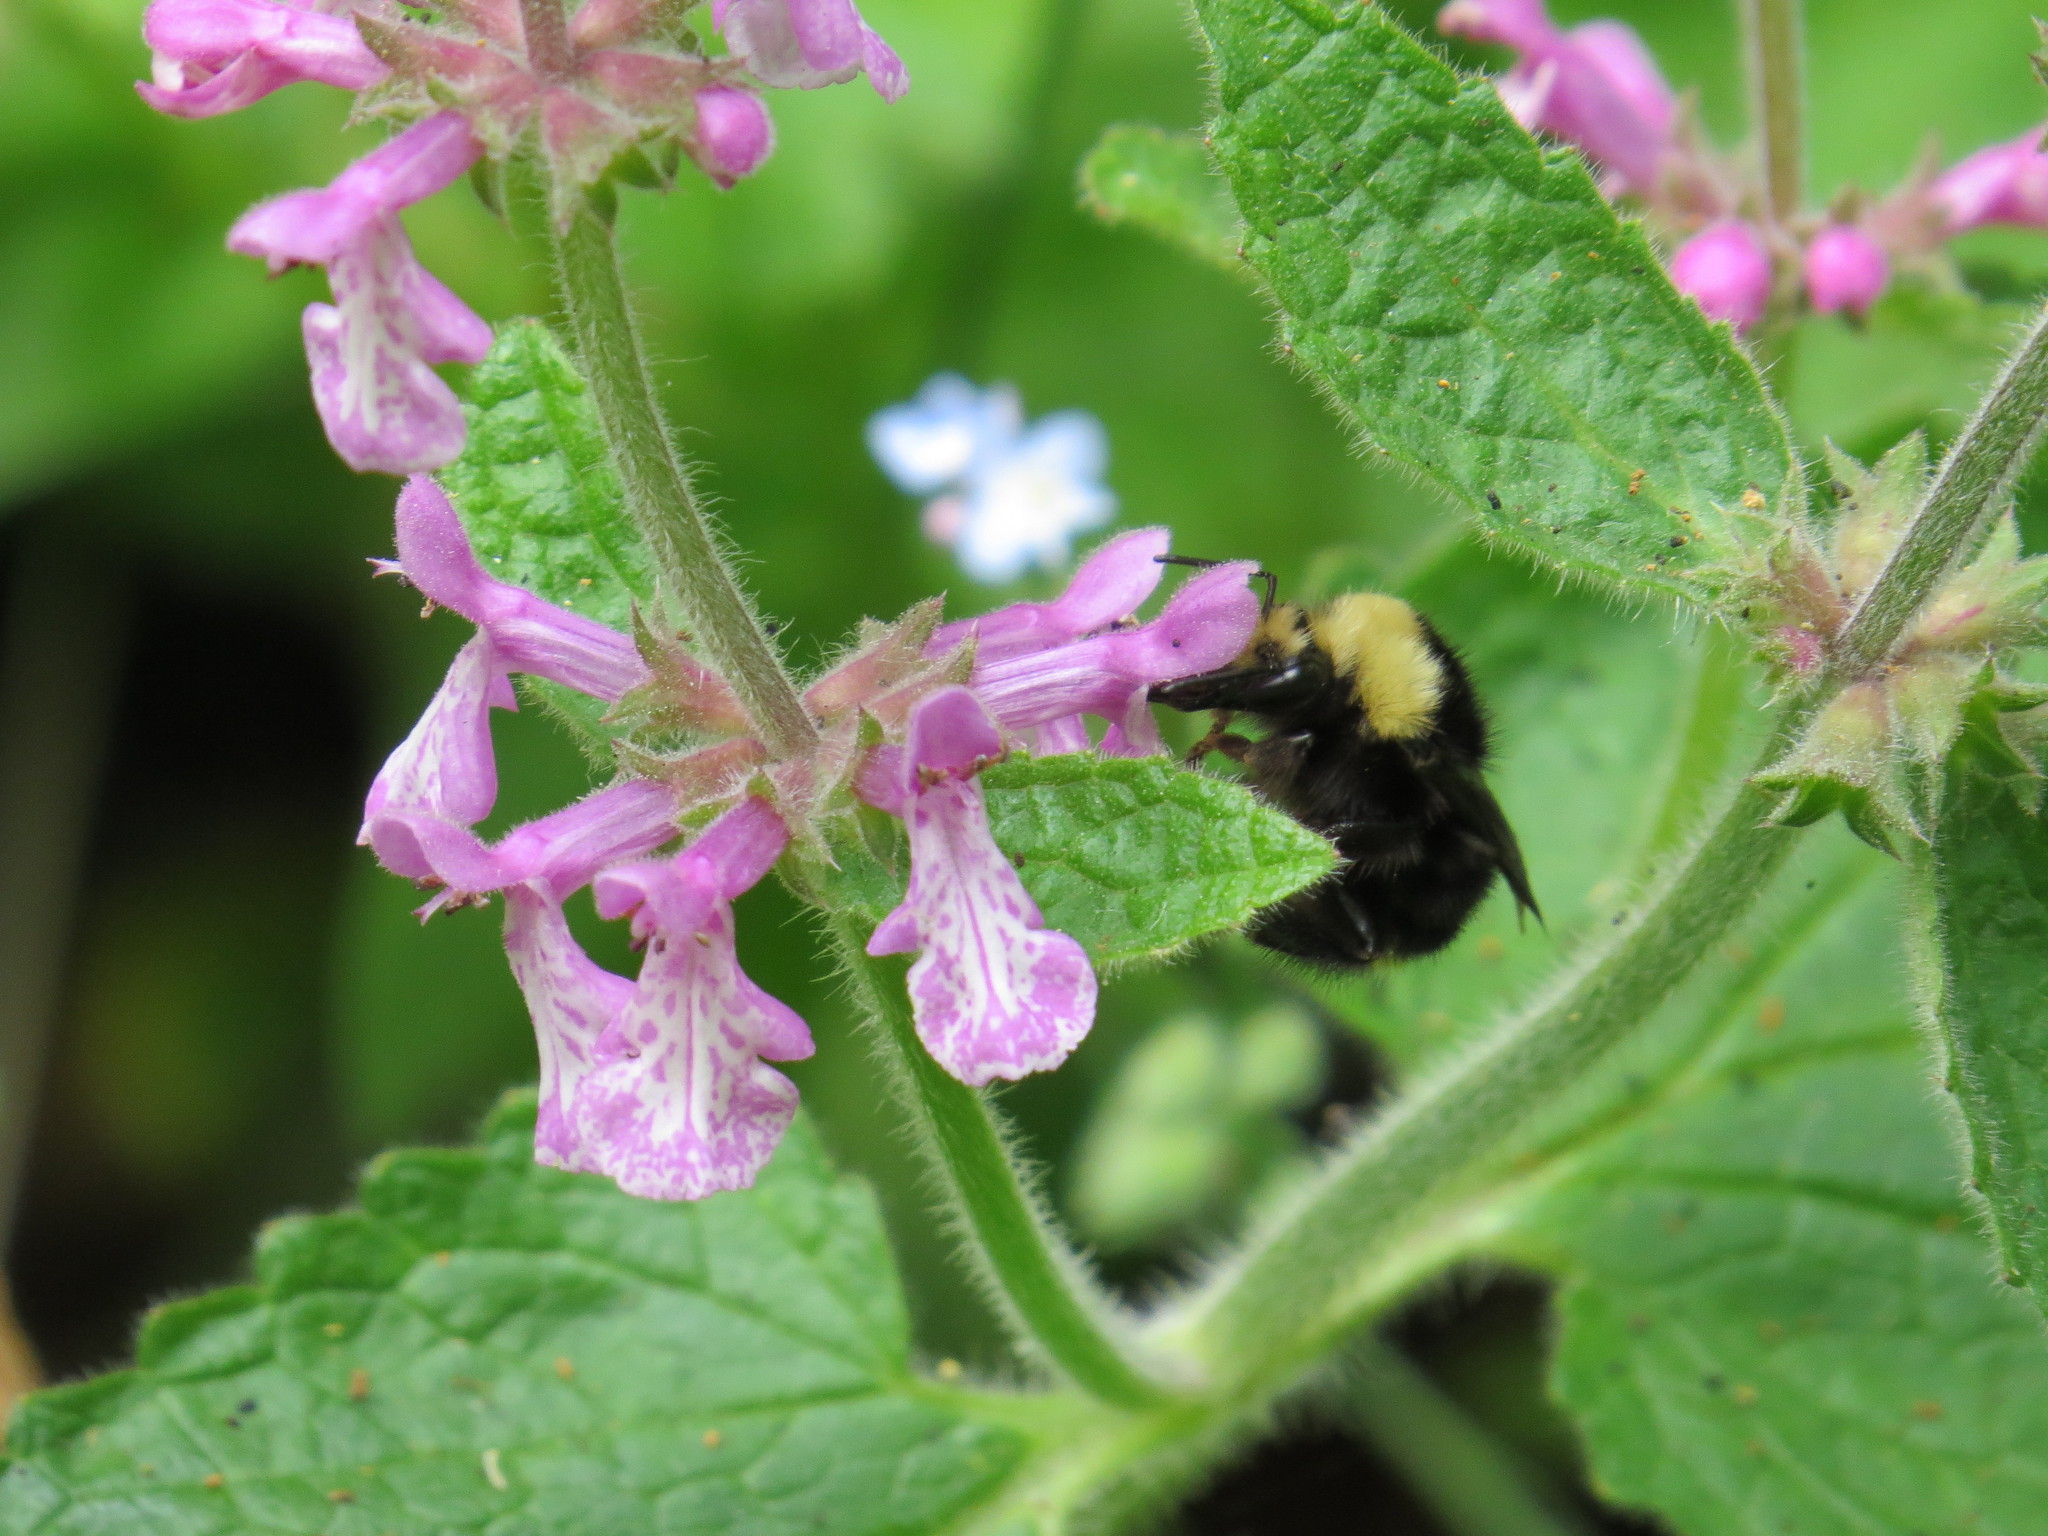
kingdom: Animalia
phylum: Arthropoda
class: Insecta
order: Hymenoptera
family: Apidae
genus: Bombus
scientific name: Bombus vosnesenskii
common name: Vosnesensky bumble bee
